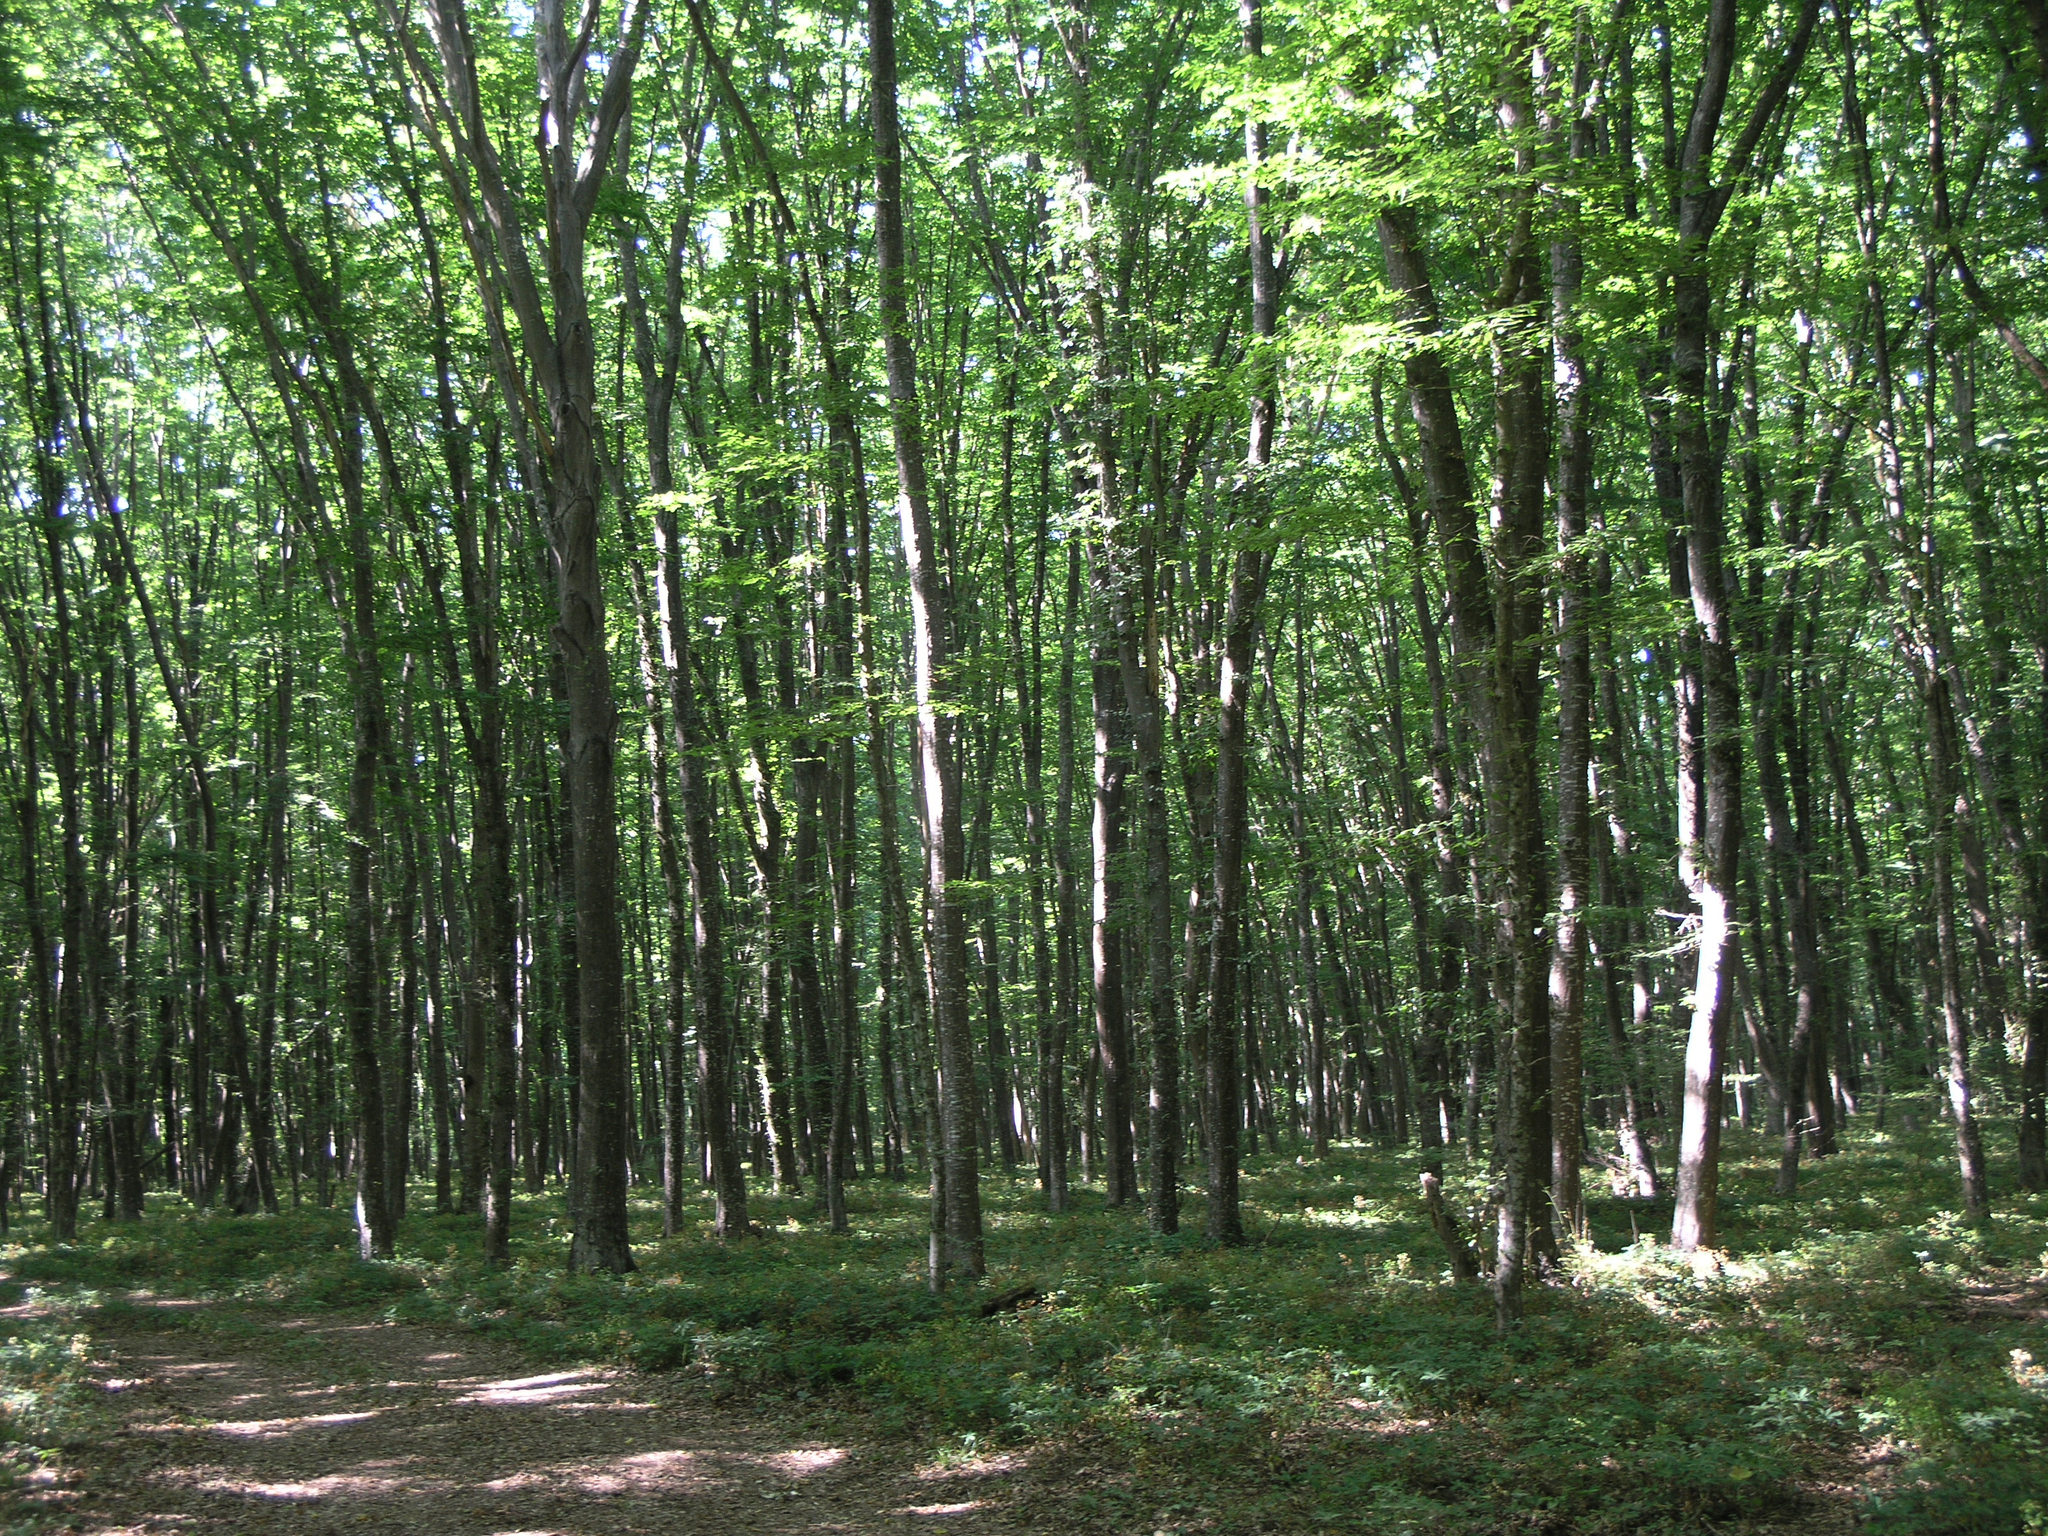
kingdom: Plantae
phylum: Tracheophyta
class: Magnoliopsida
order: Fagales
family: Betulaceae
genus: Carpinus
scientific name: Carpinus betulus
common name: Hornbeam
